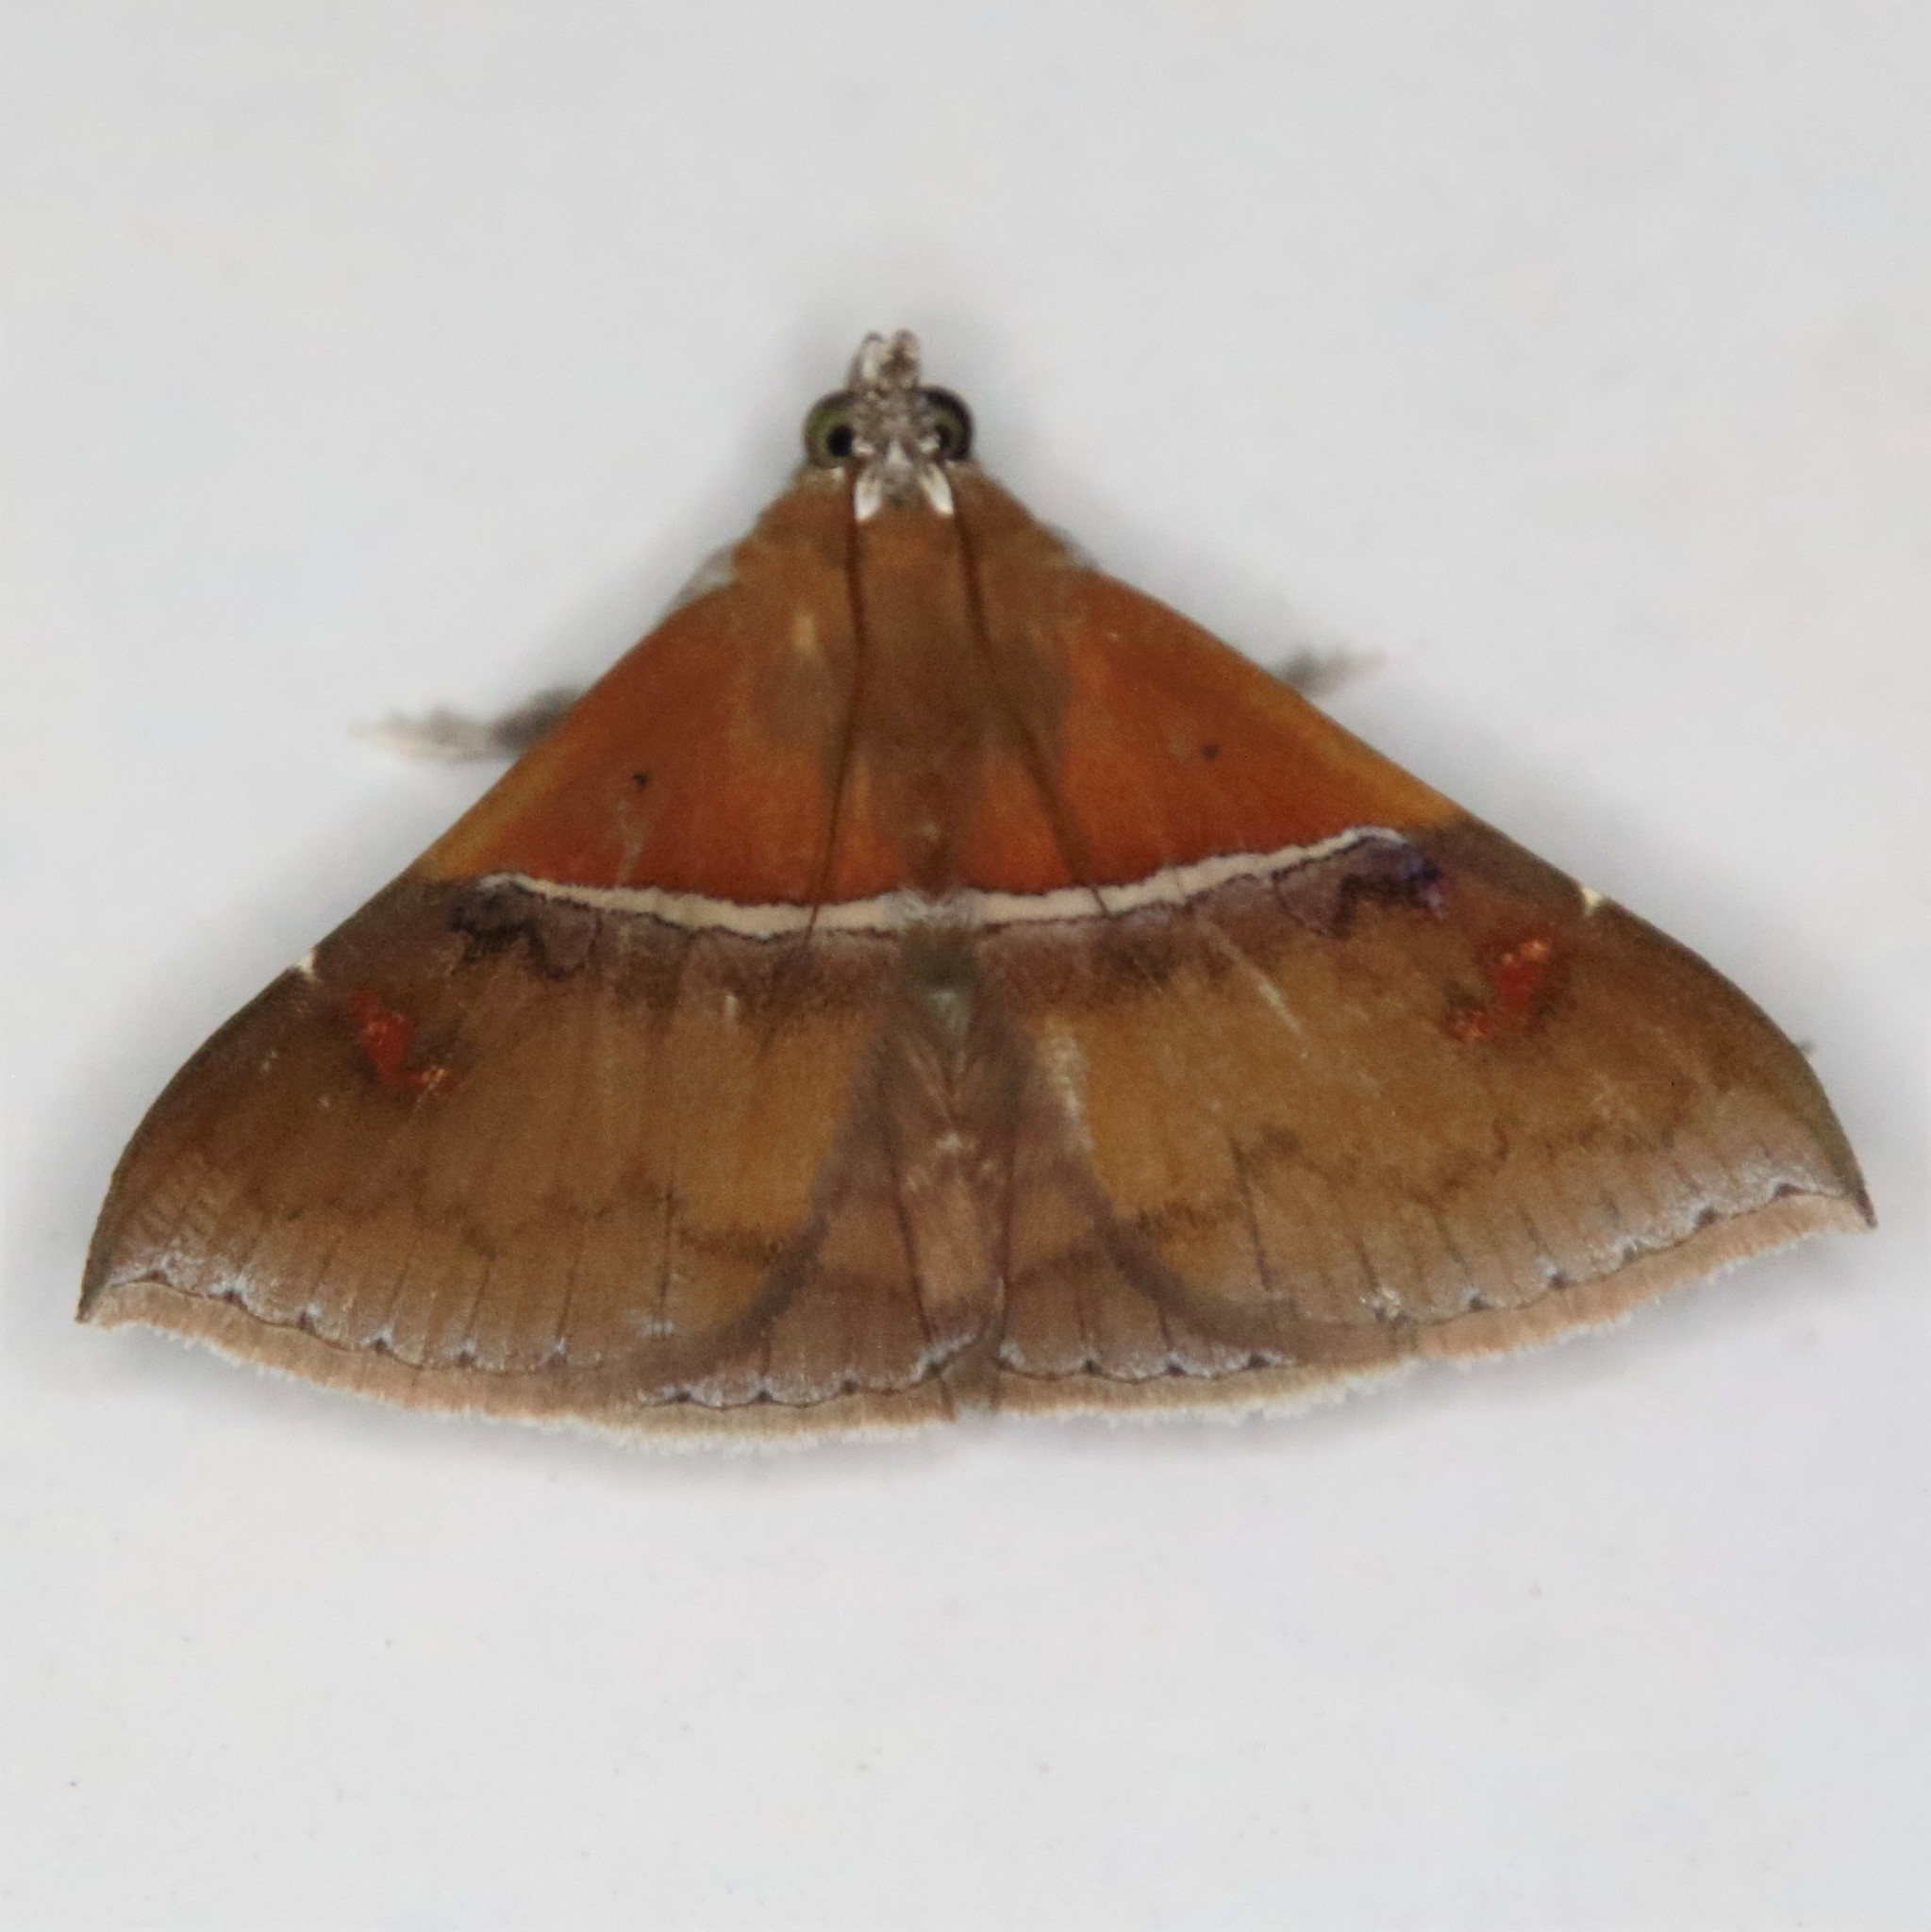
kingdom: Animalia
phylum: Arthropoda
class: Insecta
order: Lepidoptera
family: Erebidae
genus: Sympis
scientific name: Sympis rufibasis
